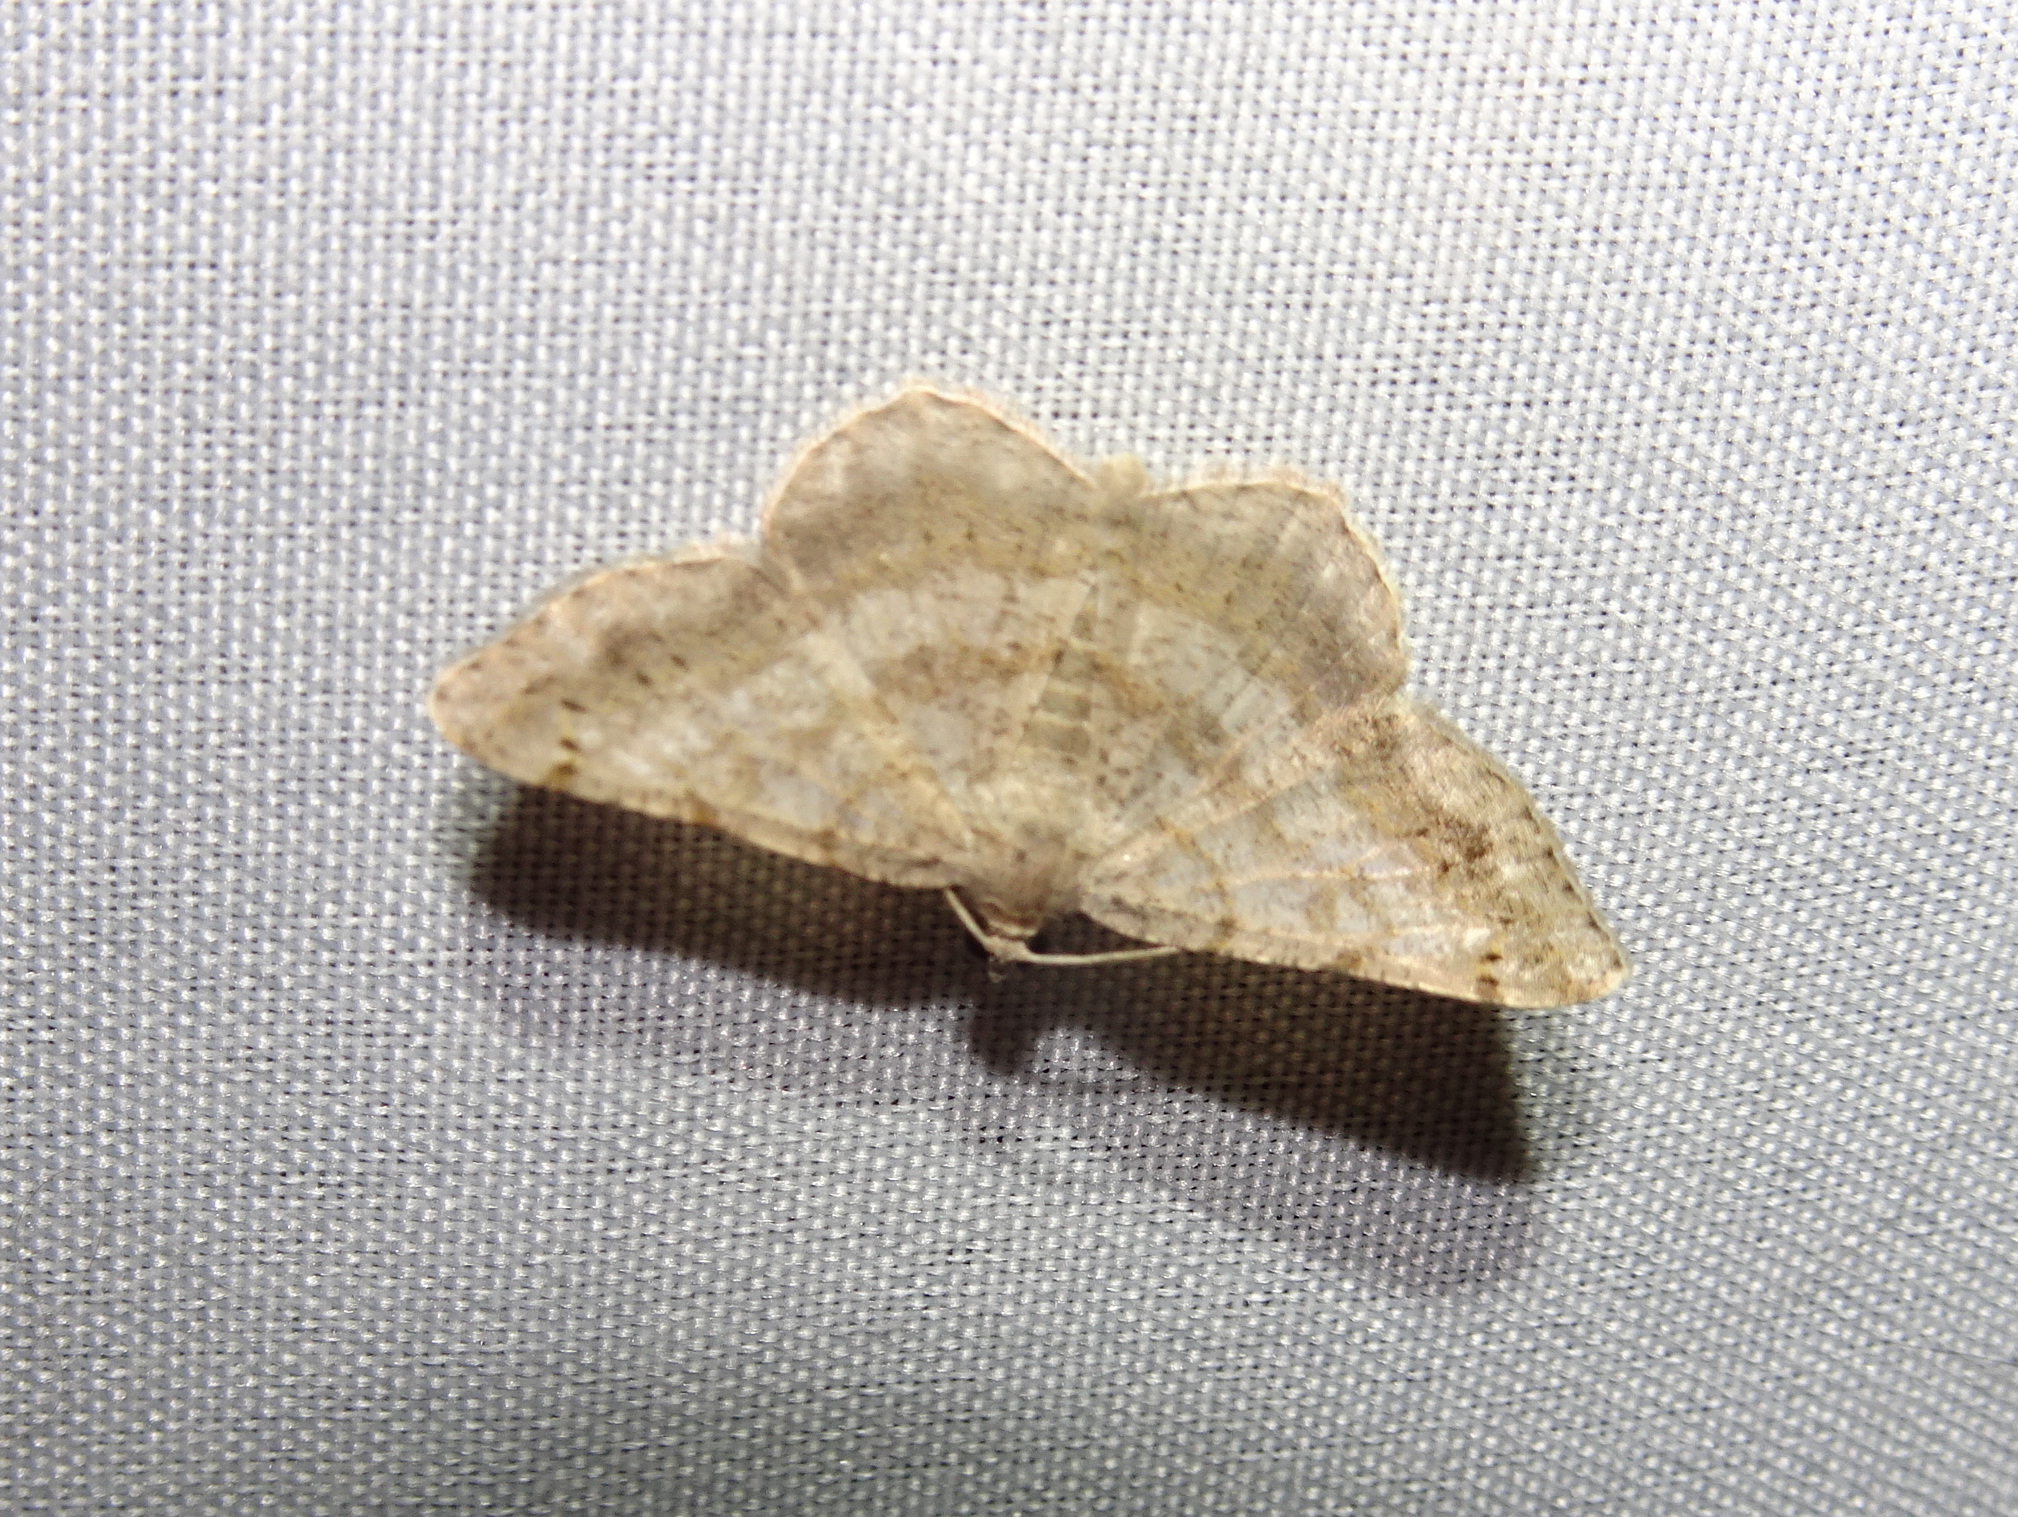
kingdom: Animalia
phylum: Arthropoda
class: Insecta
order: Lepidoptera
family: Geometridae
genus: Digrammia
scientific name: Digrammia ocellinata
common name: Faint-spotted angle
